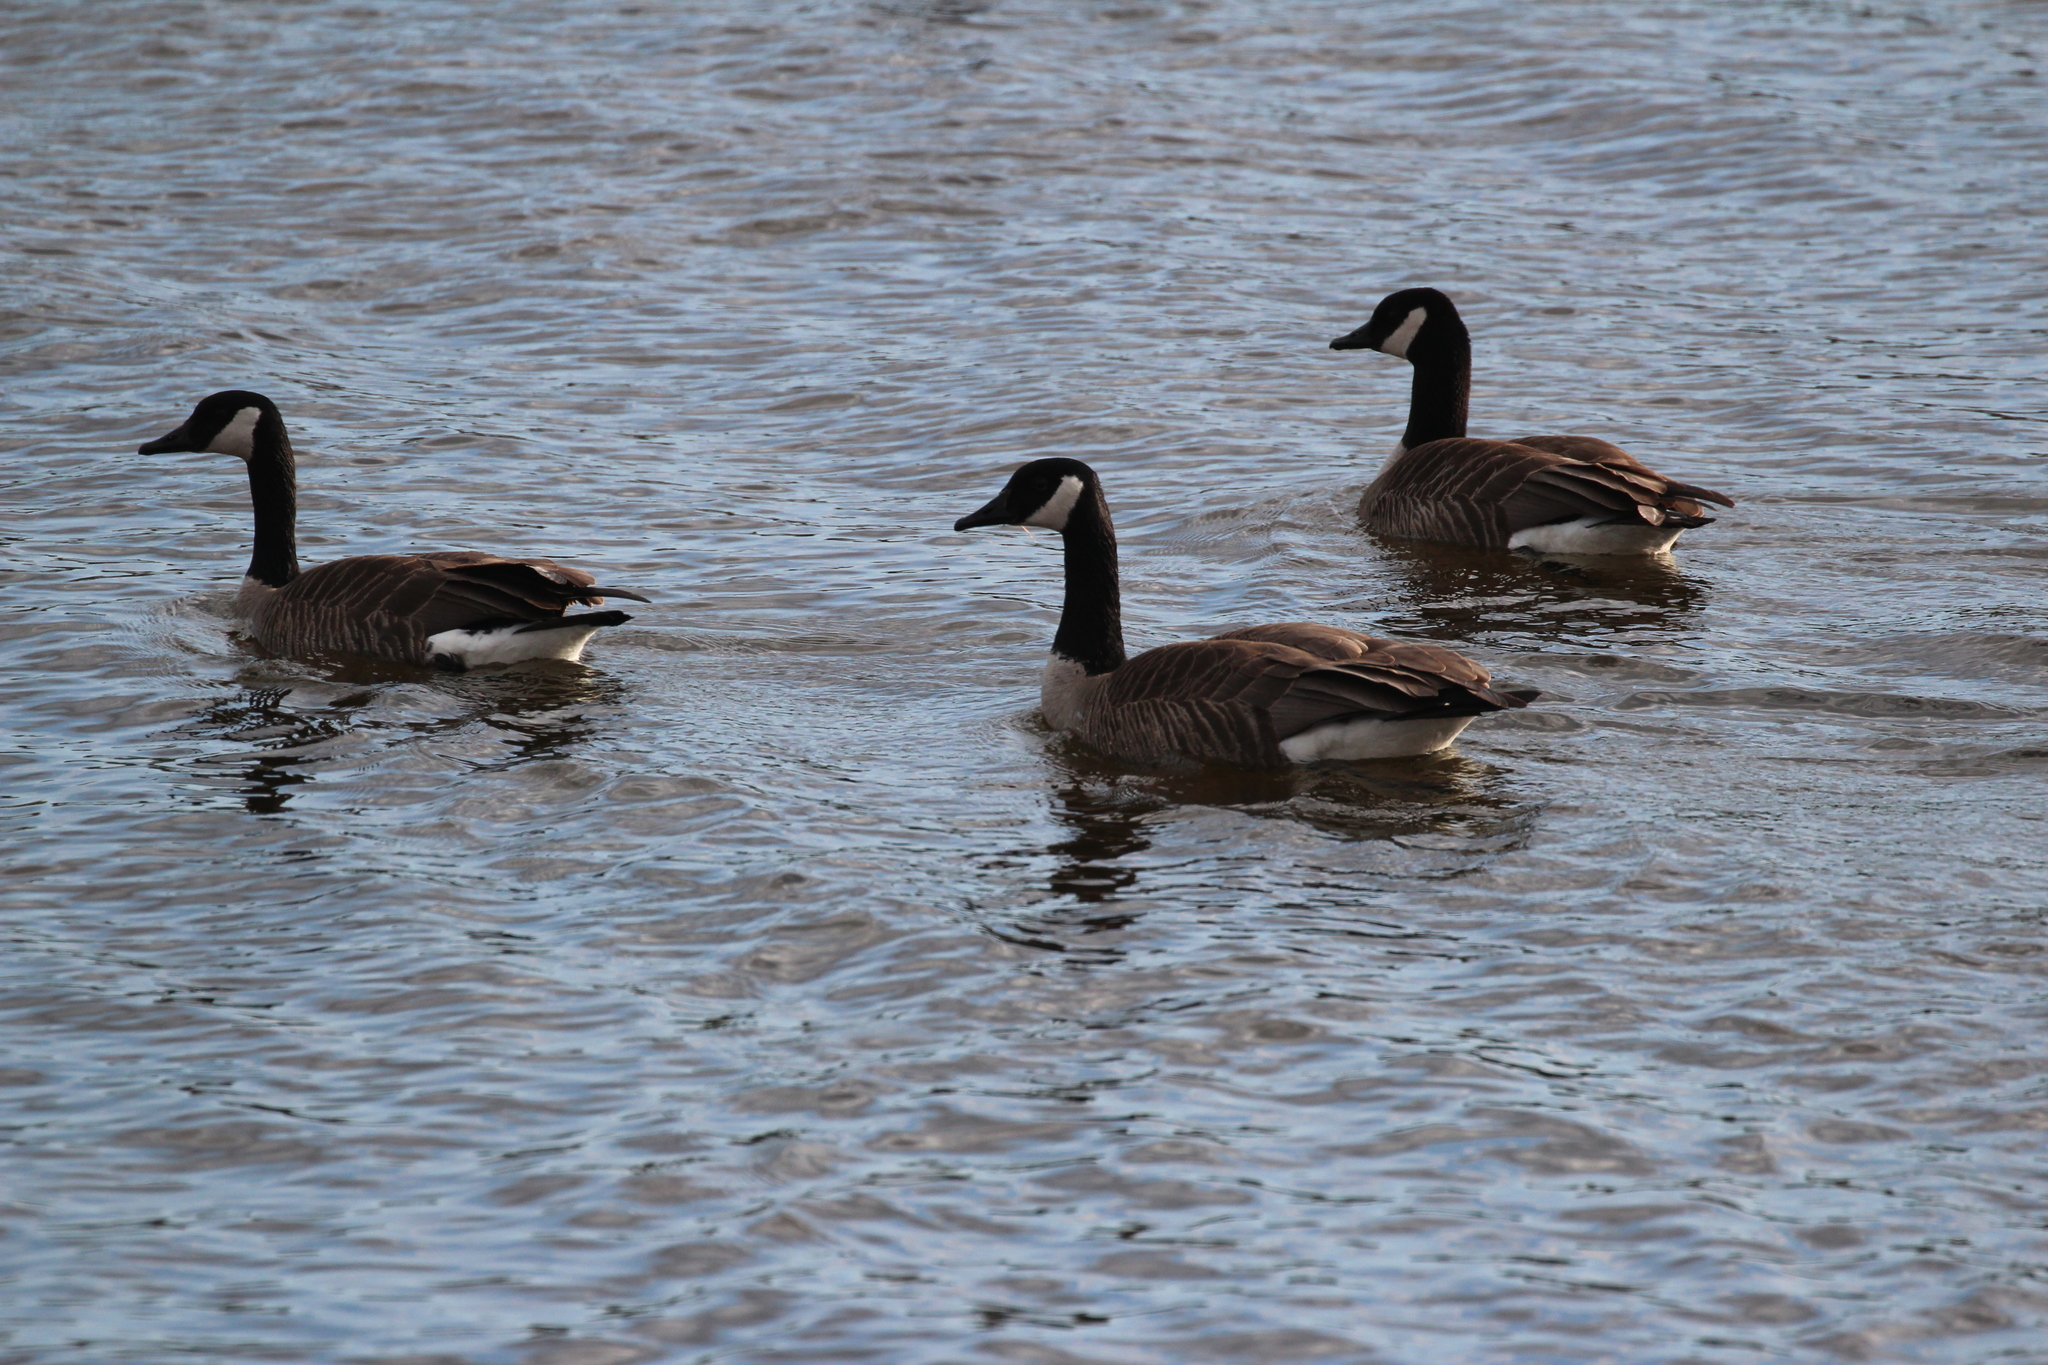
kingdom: Animalia
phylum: Chordata
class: Aves
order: Anseriformes
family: Anatidae
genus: Branta
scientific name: Branta canadensis
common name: Canada goose
